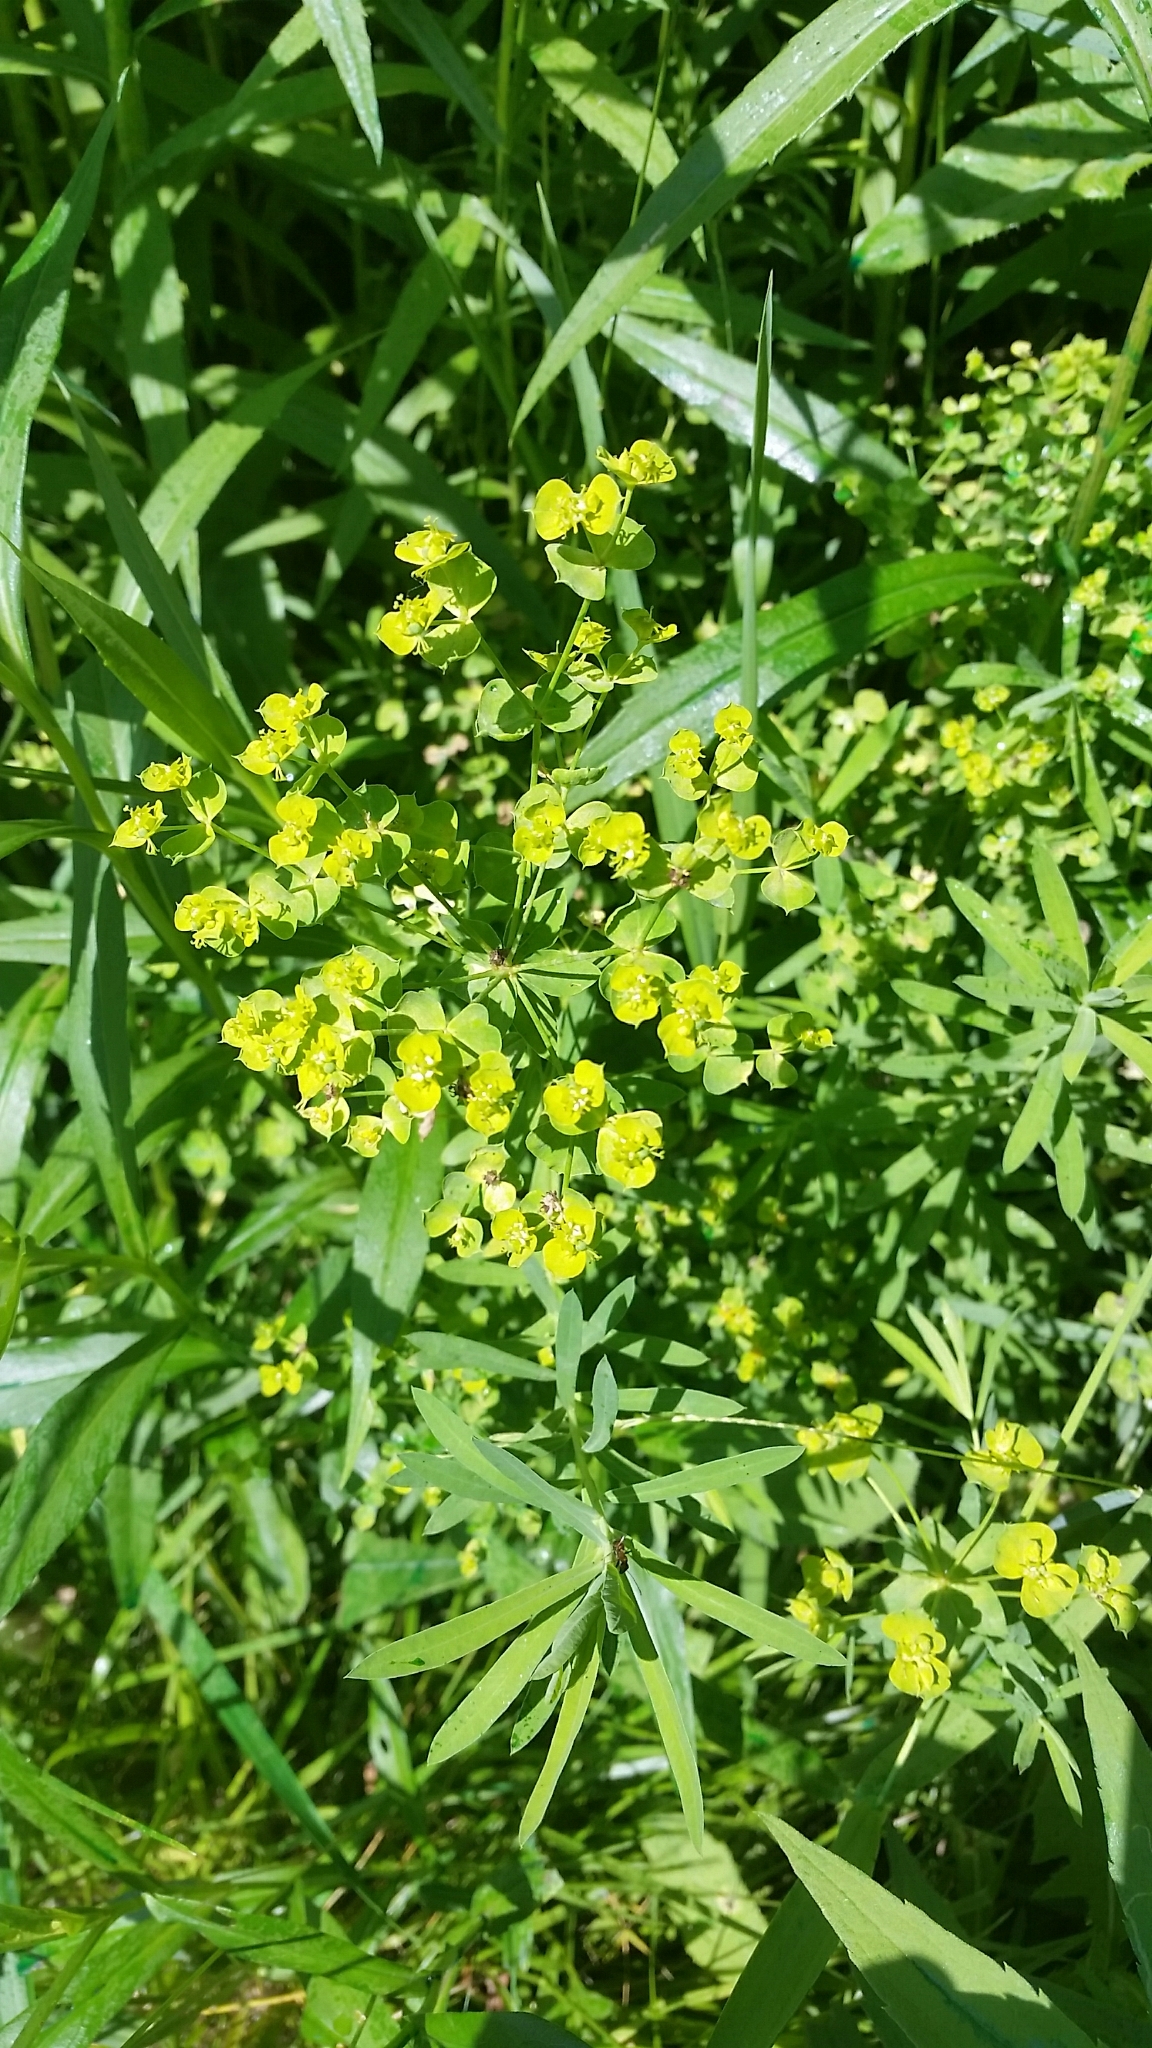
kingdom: Plantae
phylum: Tracheophyta
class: Magnoliopsida
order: Malpighiales
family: Euphorbiaceae
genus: Euphorbia
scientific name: Euphorbia virgata
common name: Leafy spurge
